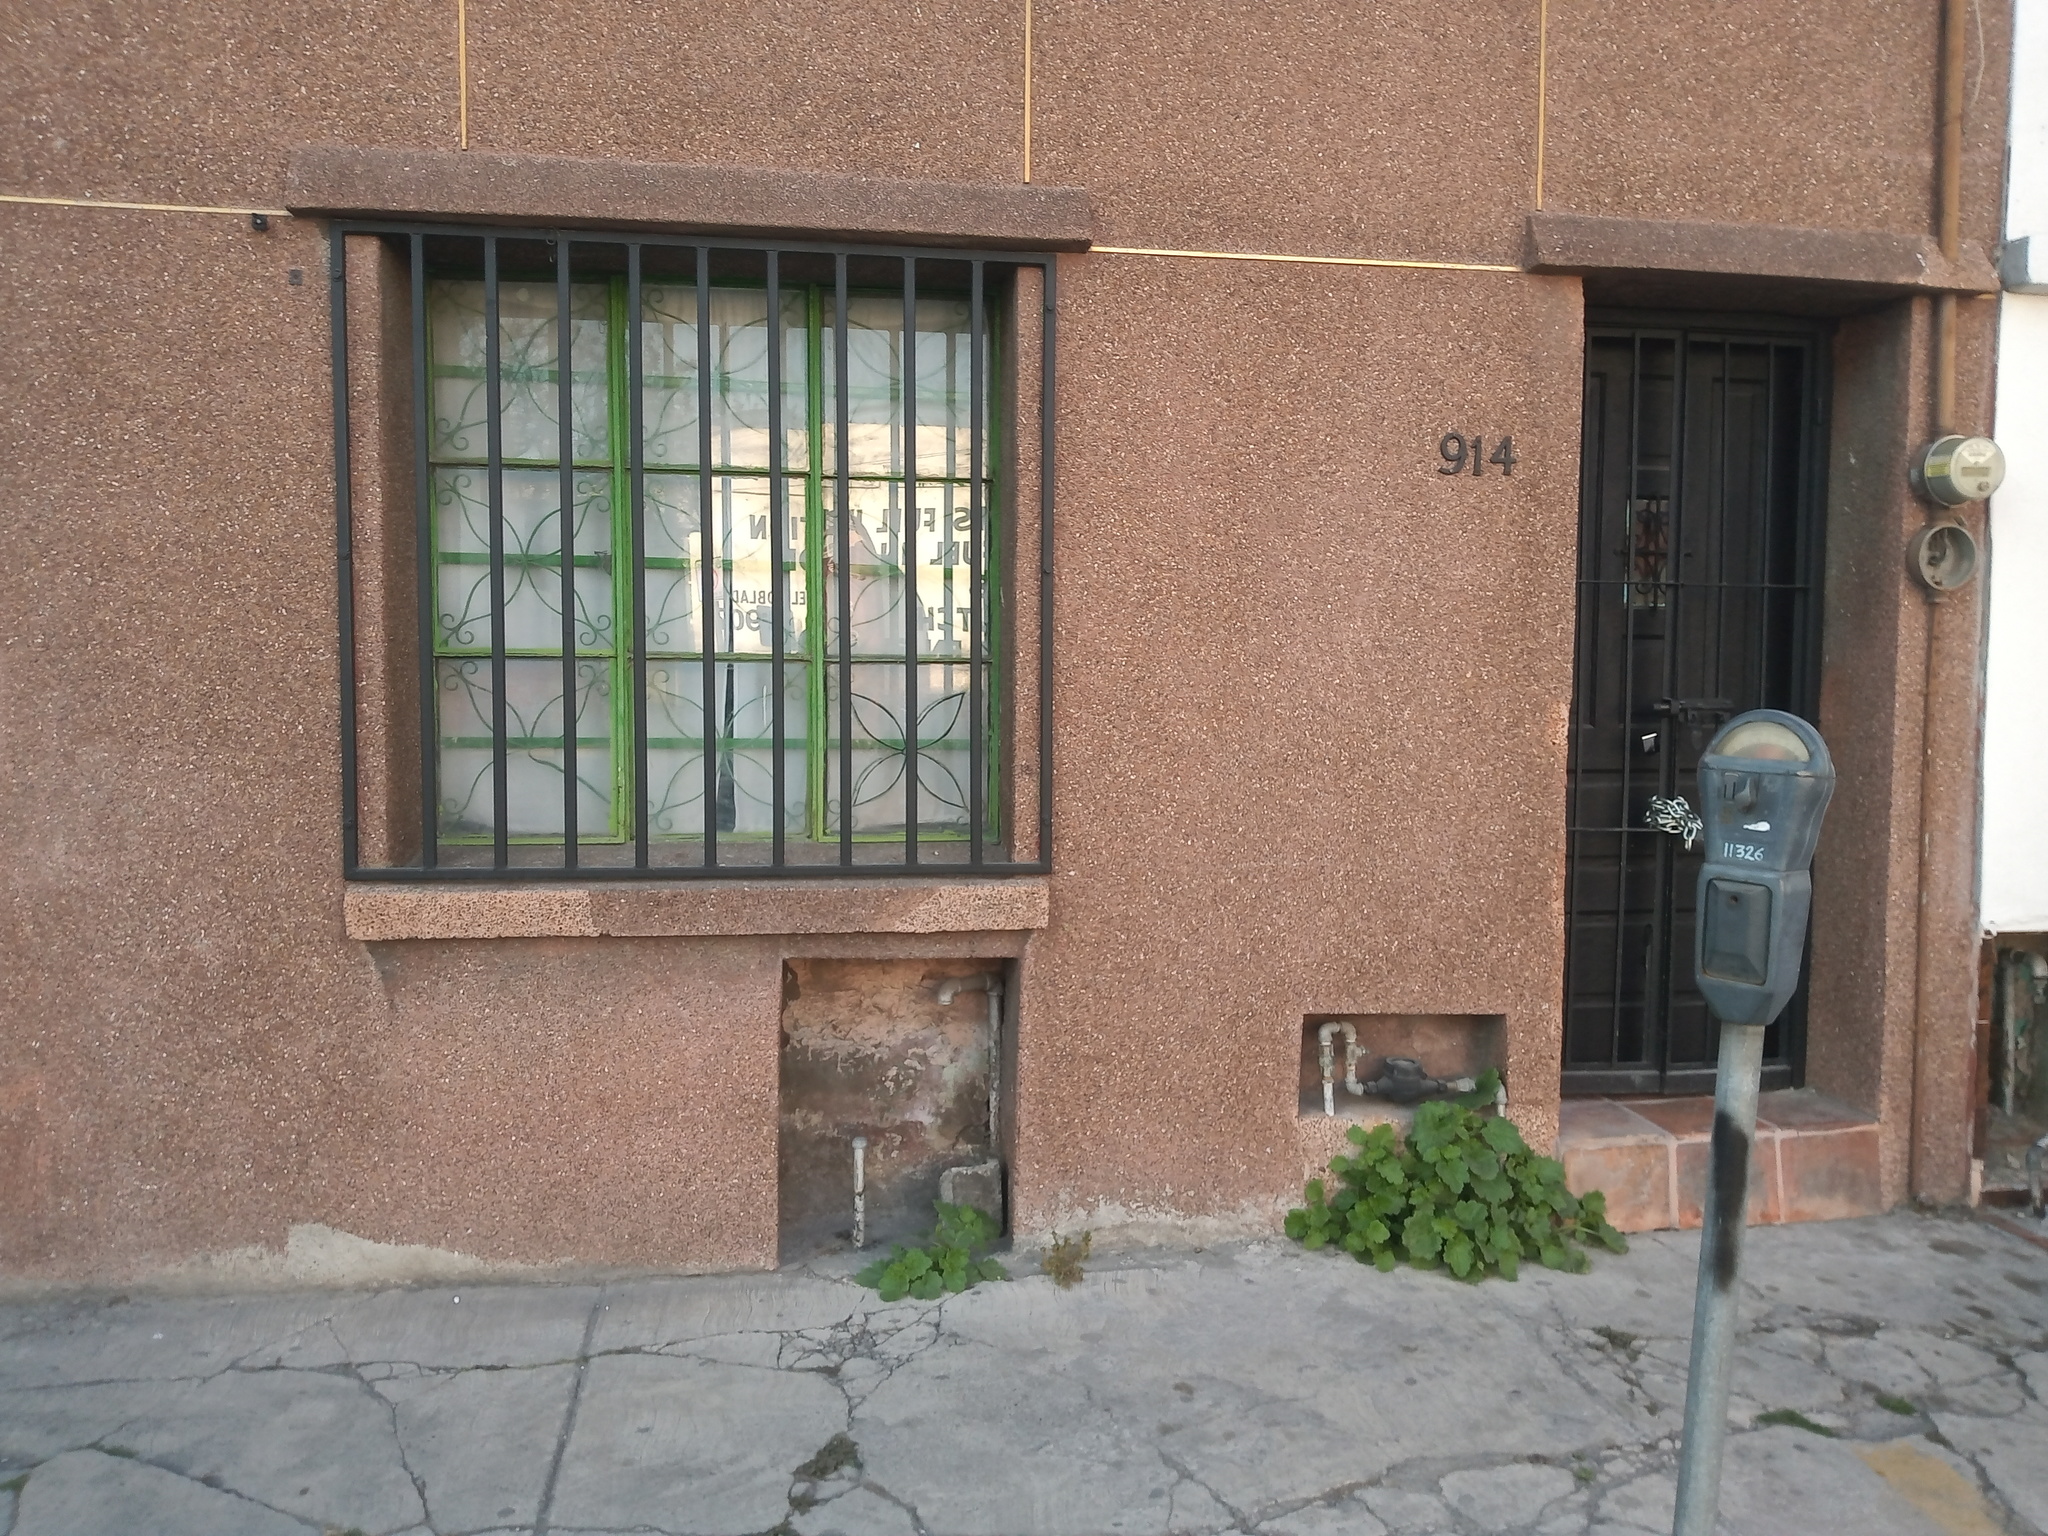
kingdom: Plantae
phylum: Tracheophyta
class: Magnoliopsida
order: Cornales
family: Loasaceae
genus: Eucnide
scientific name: Eucnide lobata
